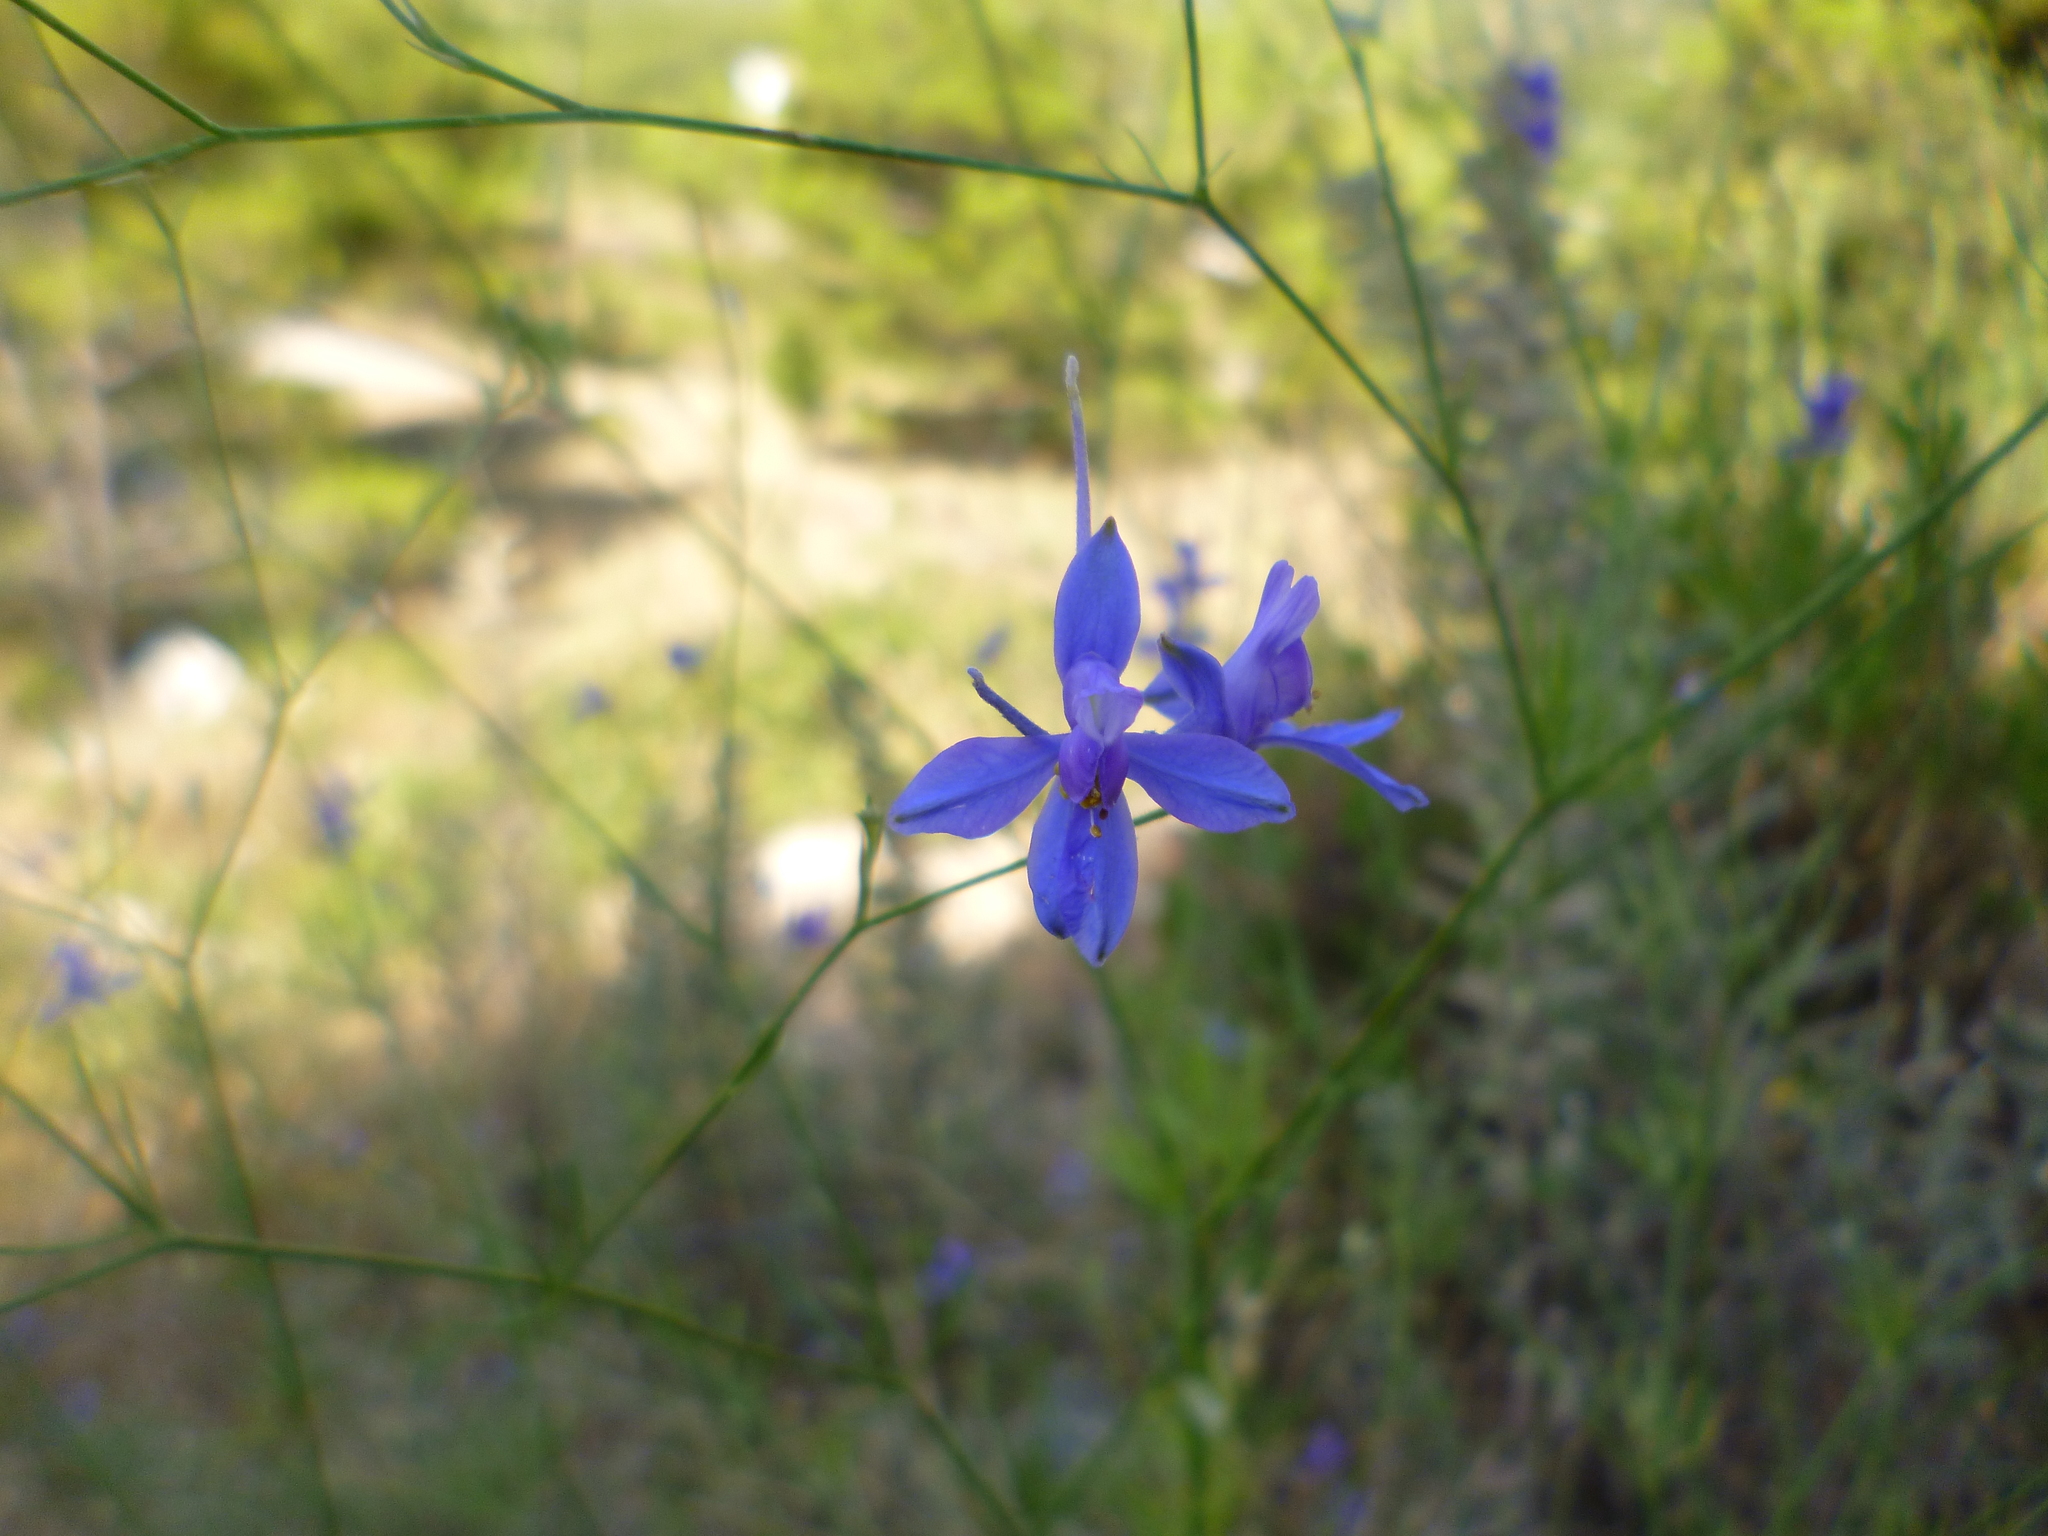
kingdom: Plantae
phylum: Tracheophyta
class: Magnoliopsida
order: Ranunculales
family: Ranunculaceae
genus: Delphinium
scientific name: Delphinium consolida
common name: Branching larkspur
